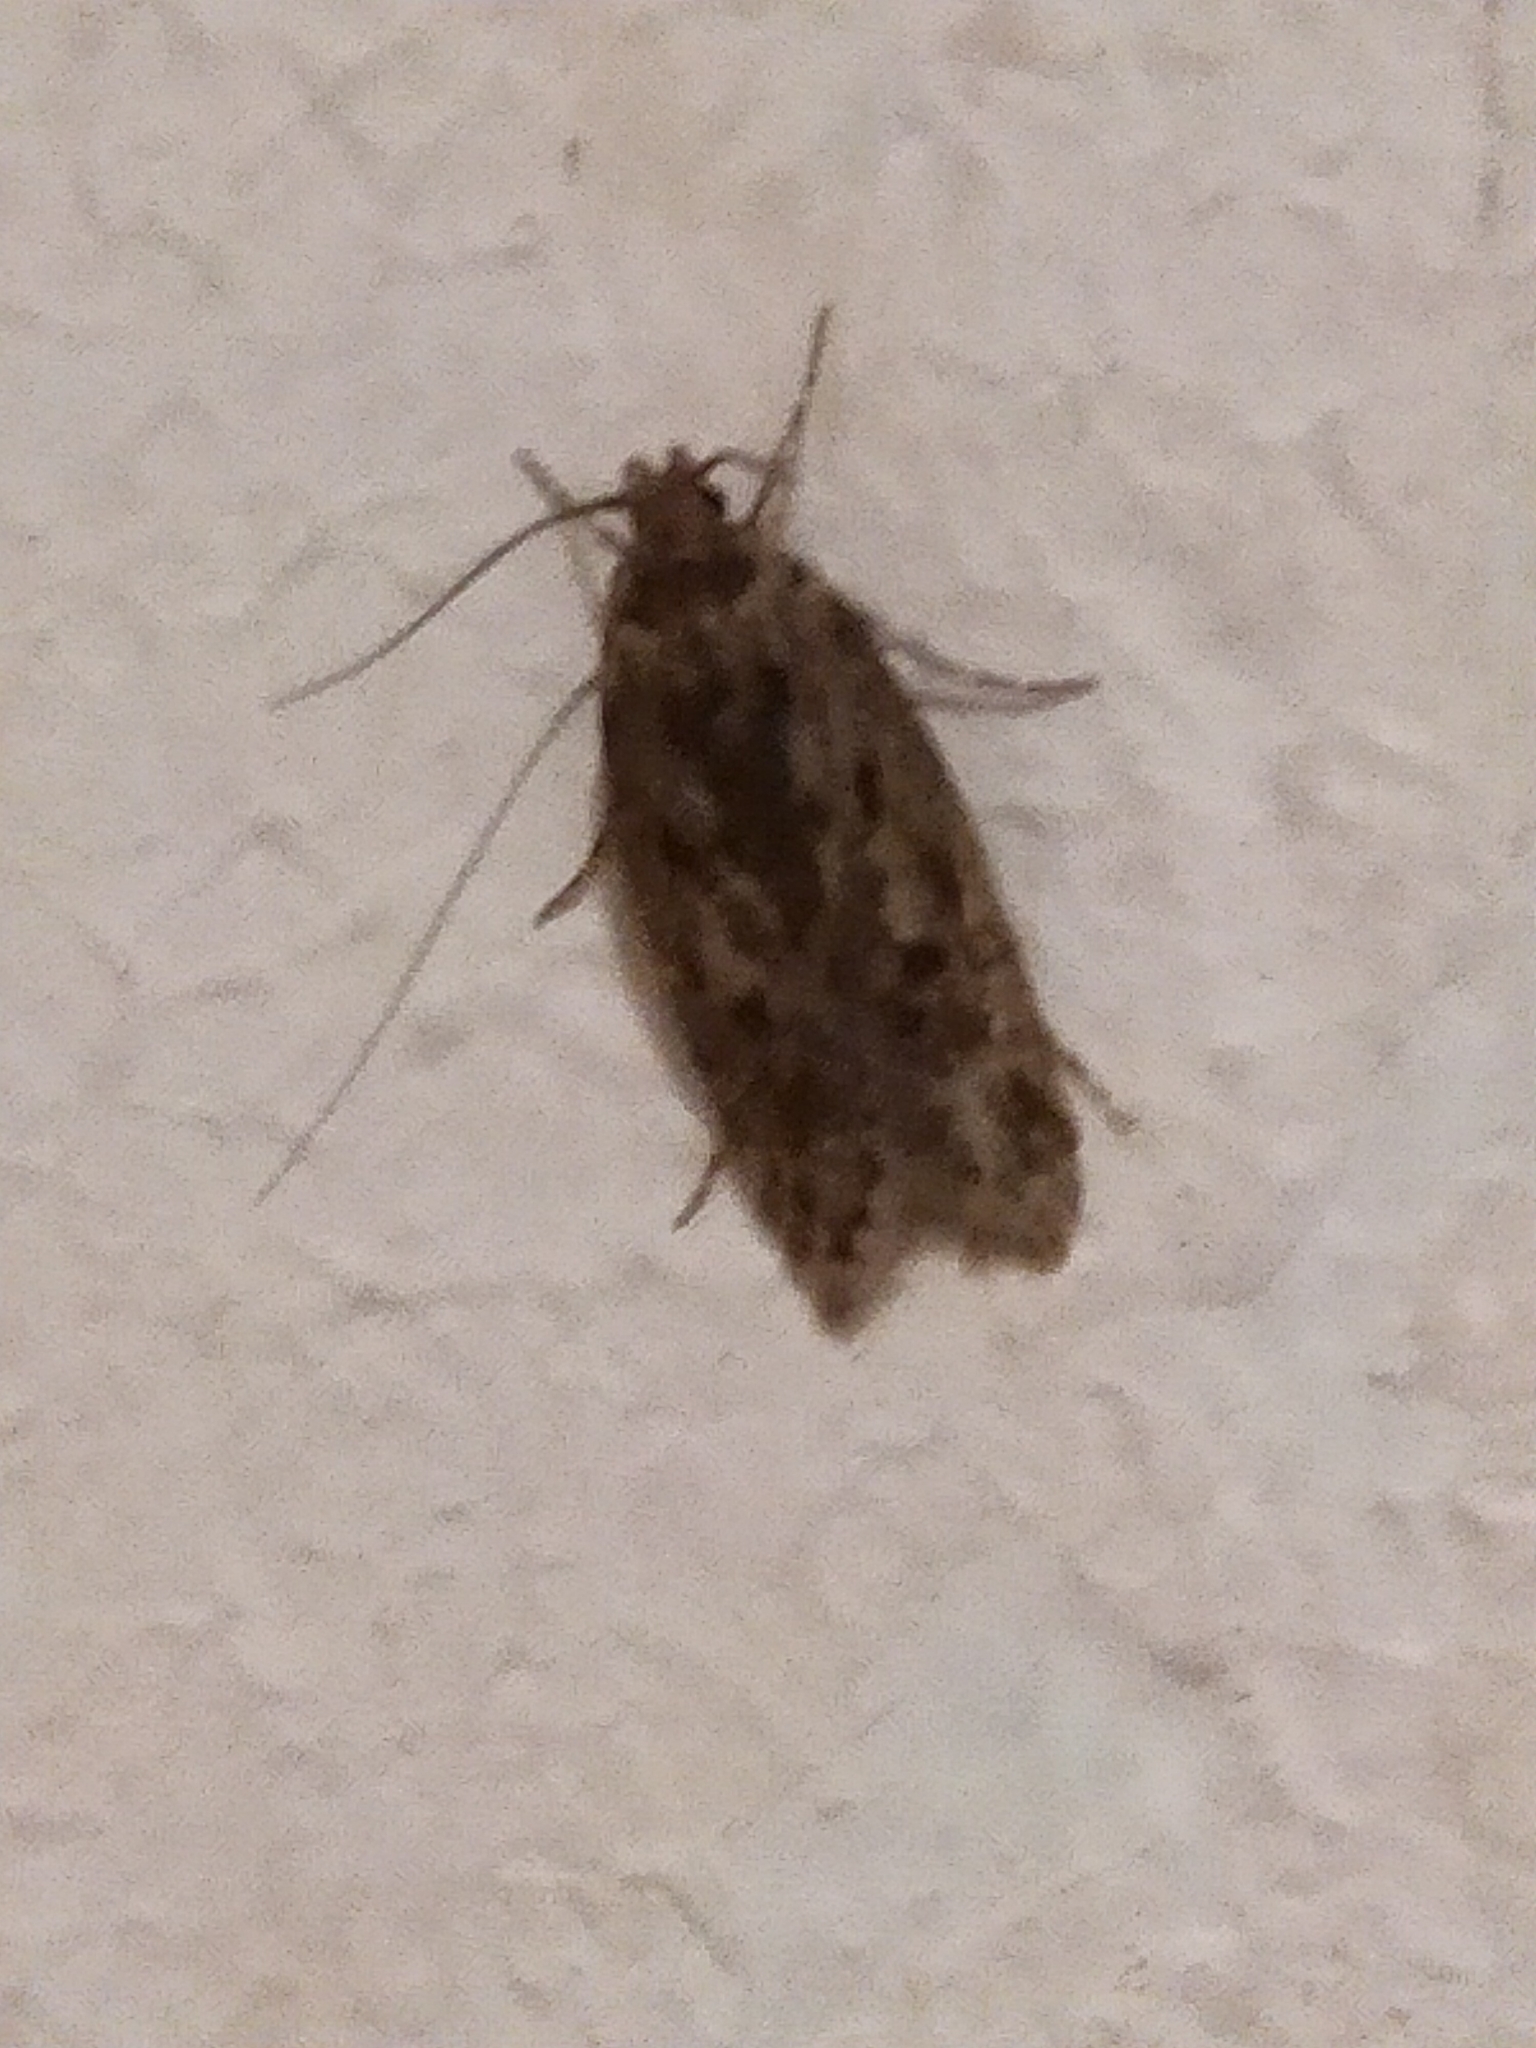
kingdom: Animalia
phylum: Arthropoda
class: Insecta
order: Lepidoptera
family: Oecophoridae
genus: Hofmannophila
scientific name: Hofmannophila pseudospretella
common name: Brown house moth
